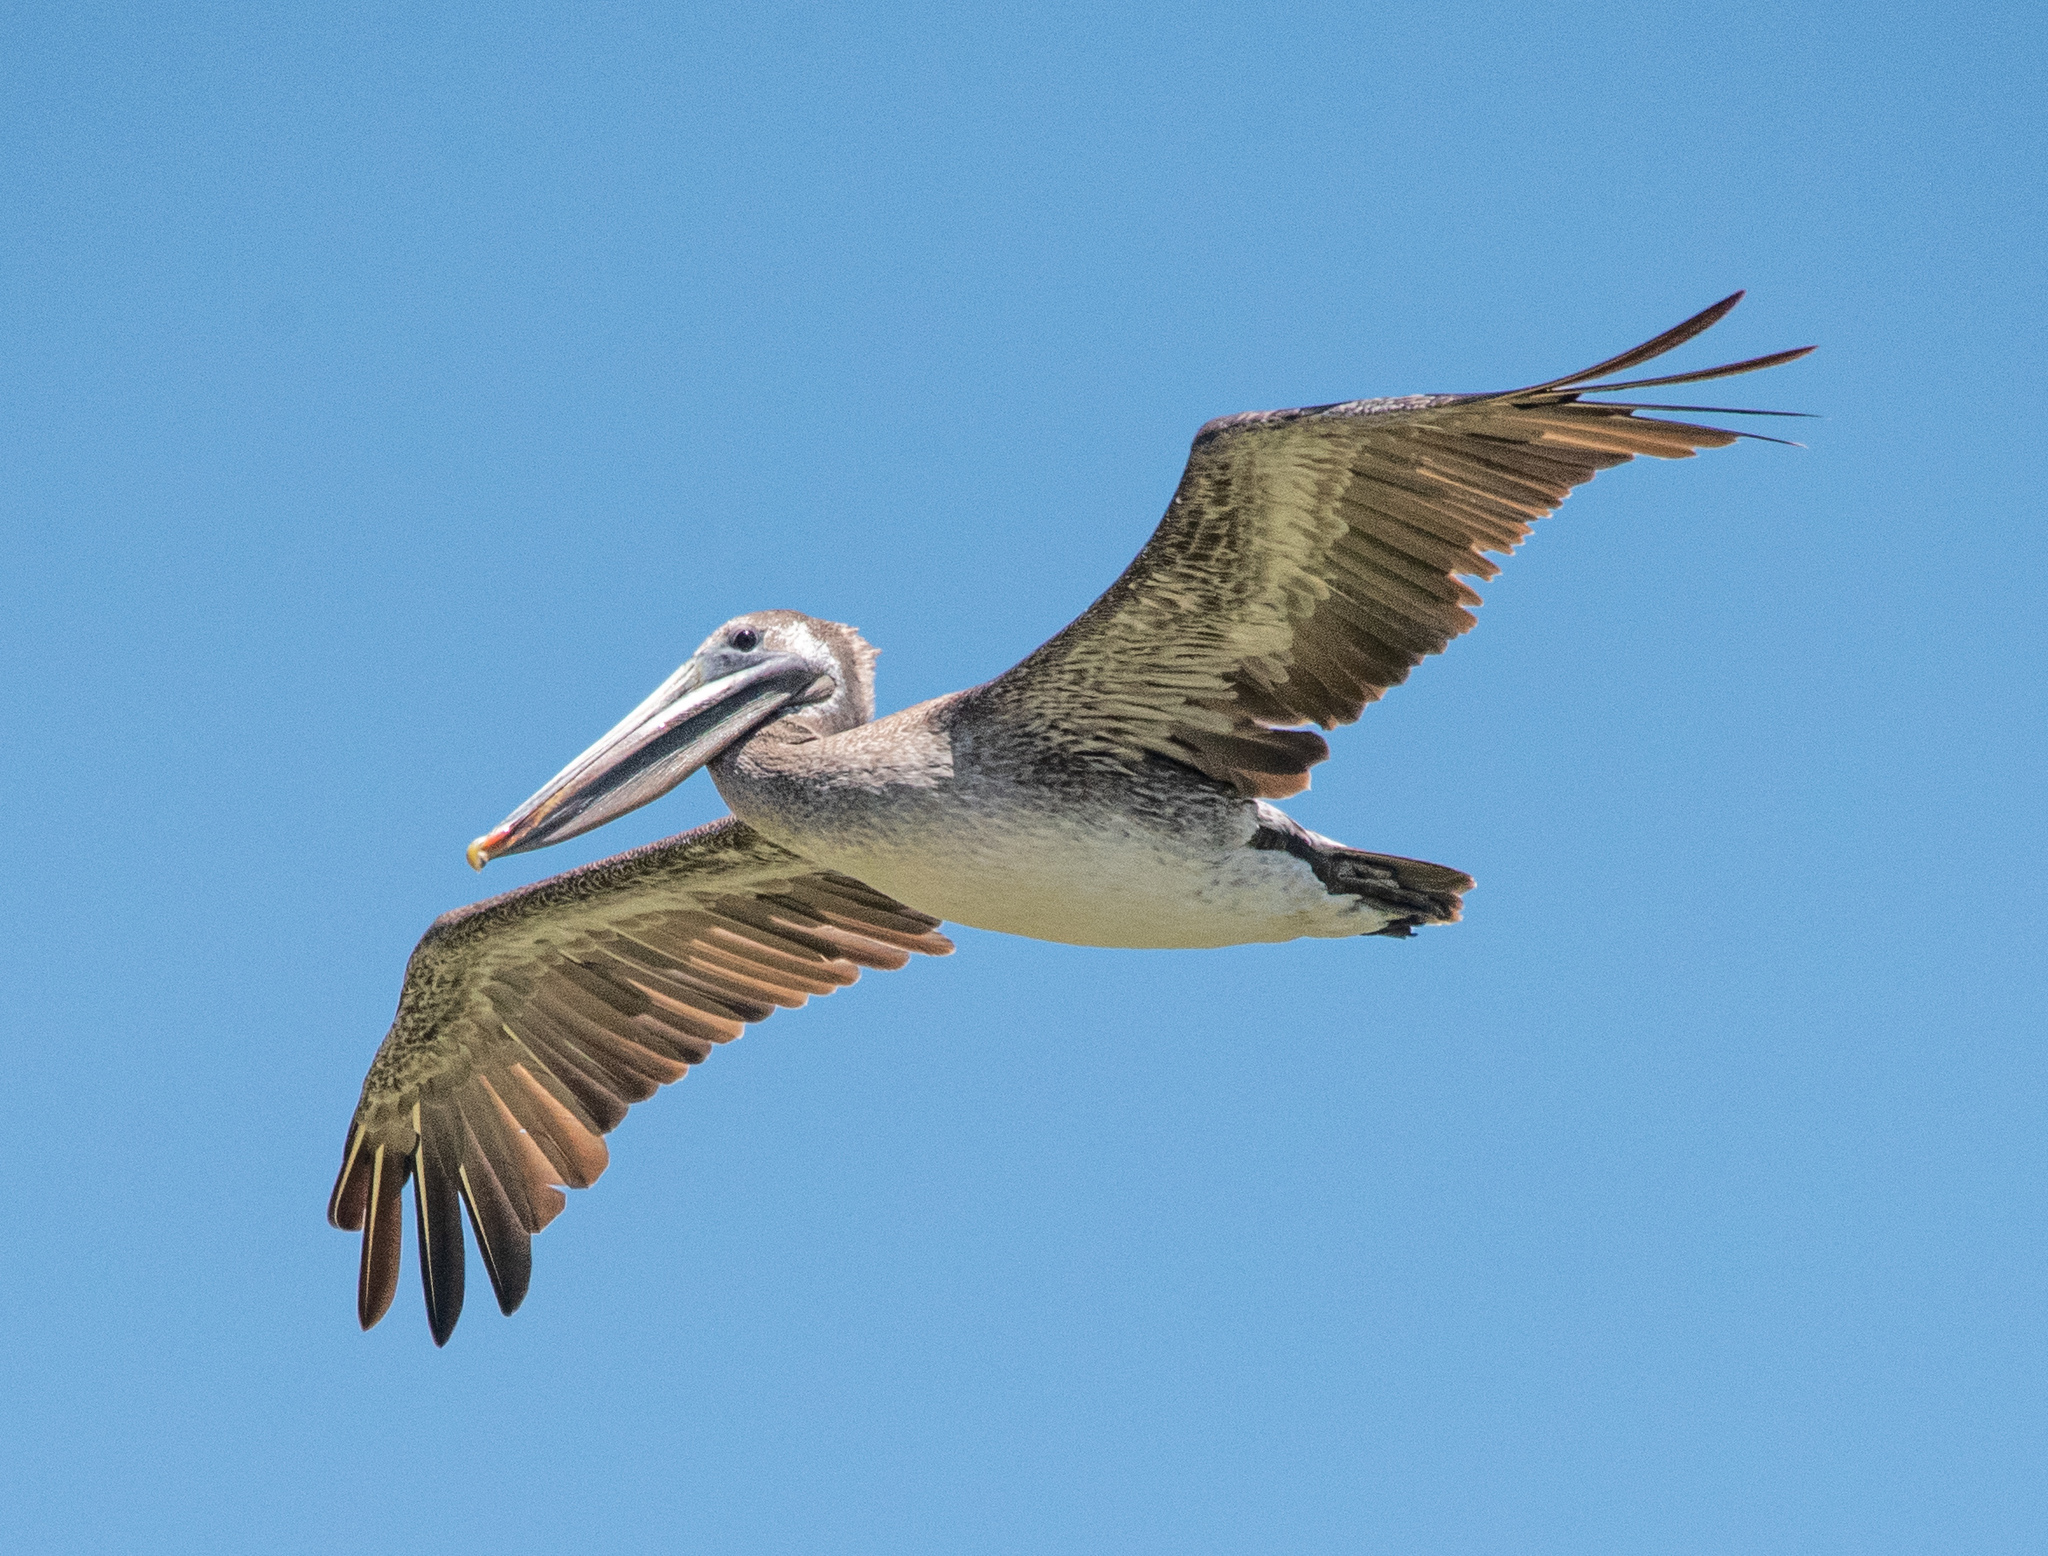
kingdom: Animalia
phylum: Chordata
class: Aves
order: Pelecaniformes
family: Pelecanidae
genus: Pelecanus
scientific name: Pelecanus occidentalis
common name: Brown pelican
